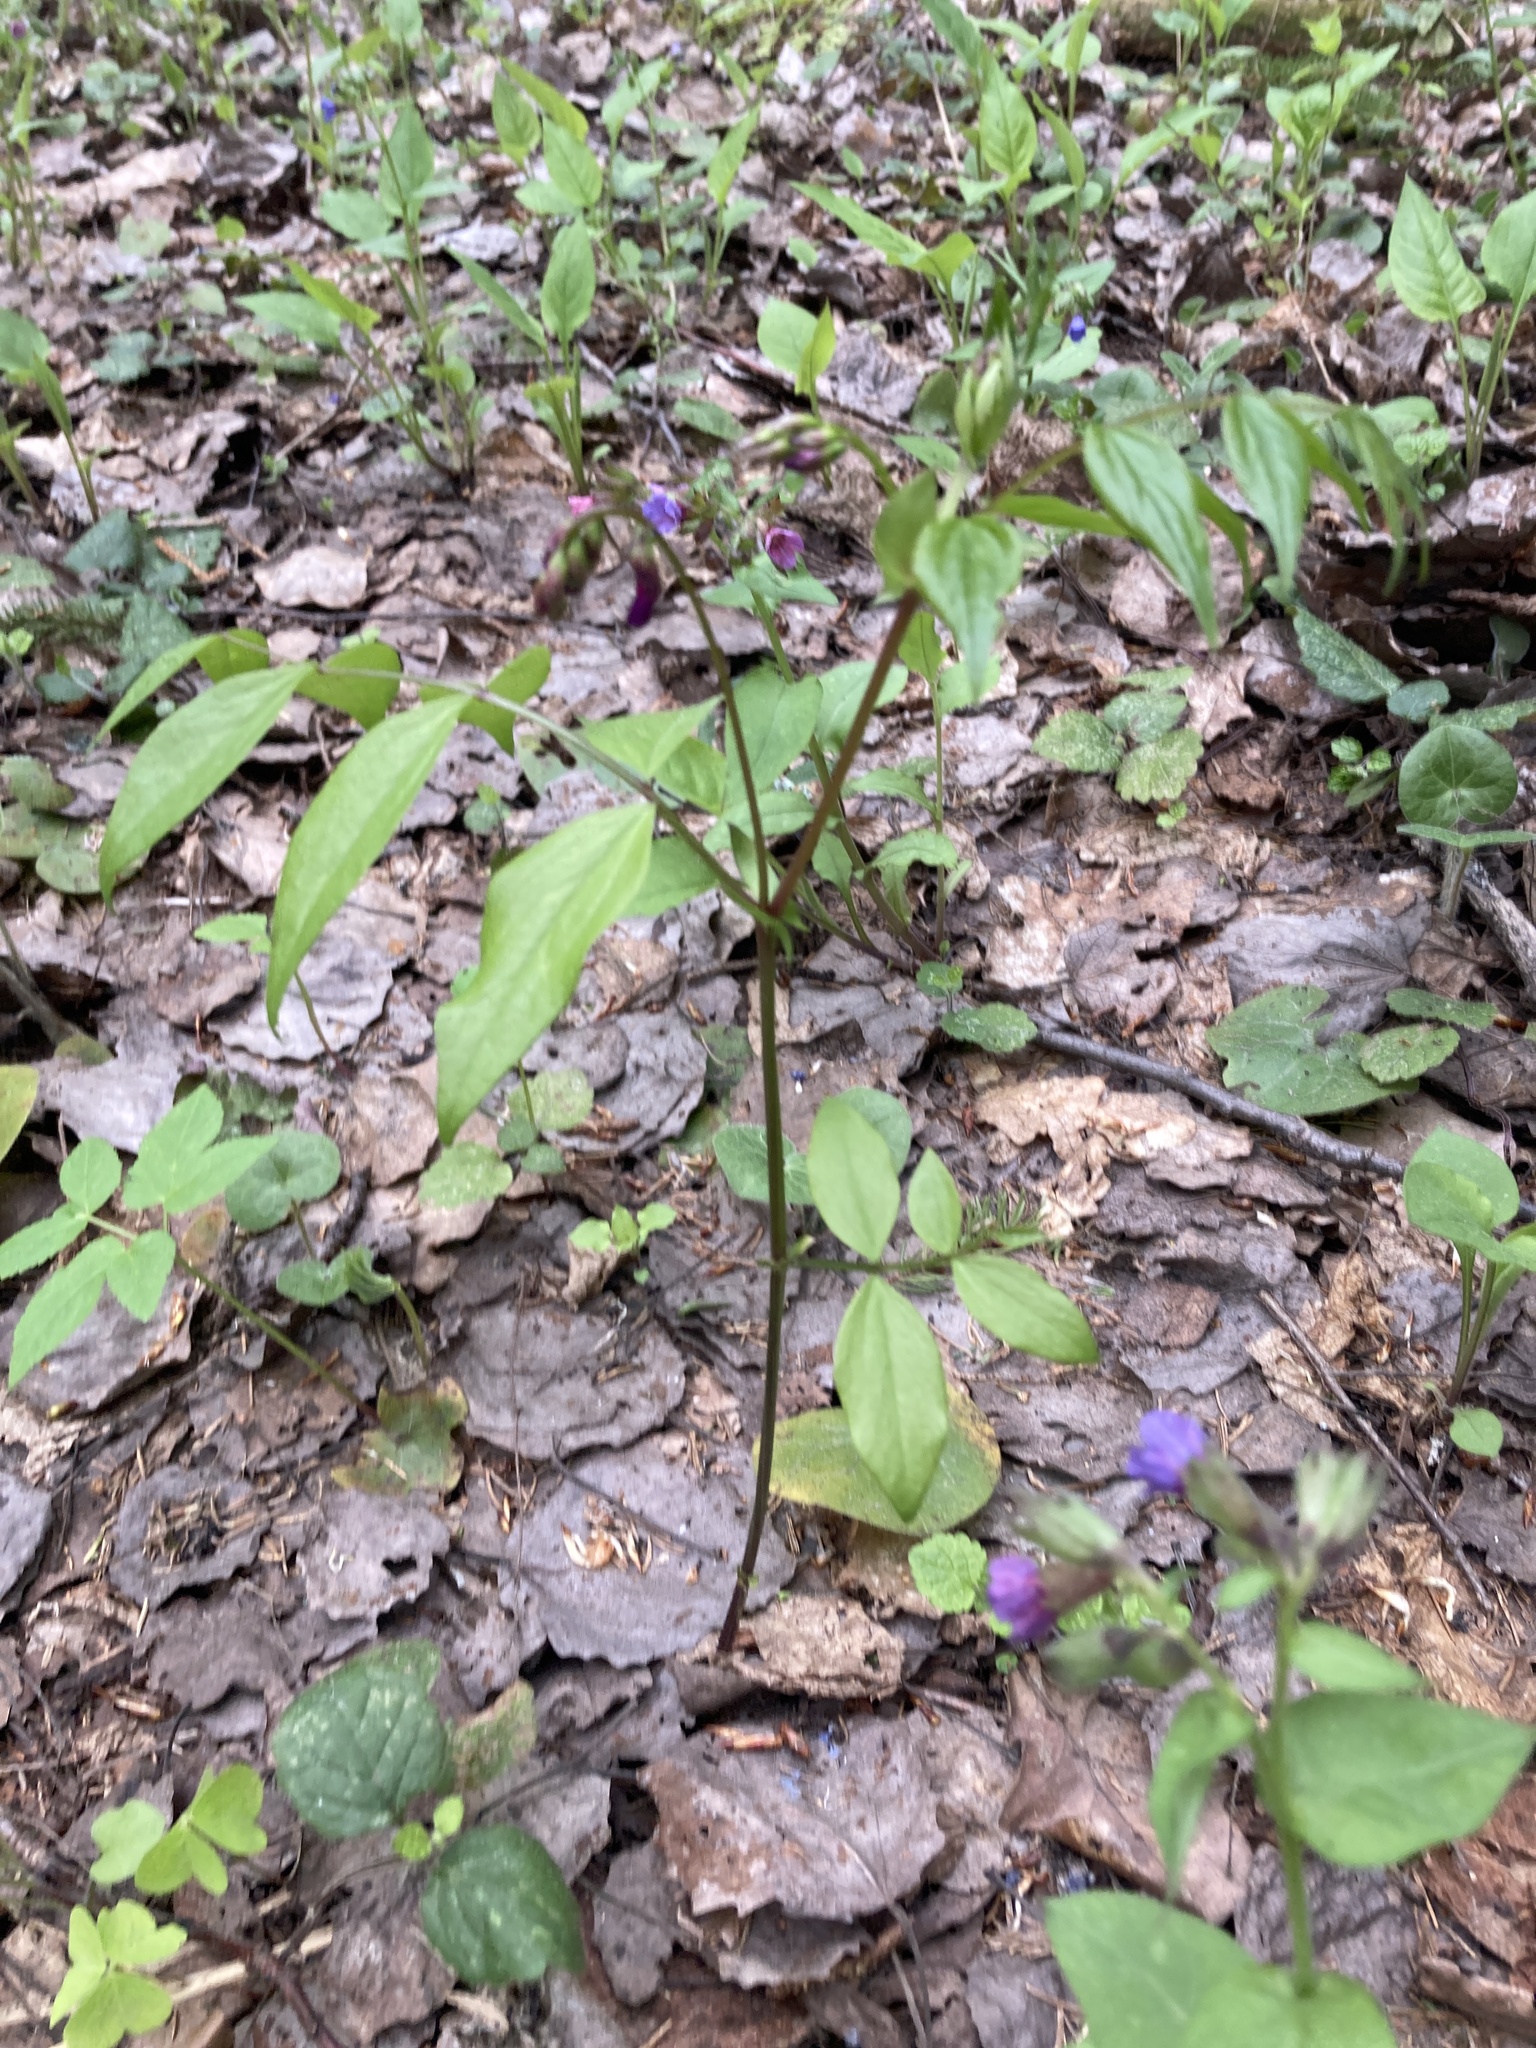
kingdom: Plantae
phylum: Tracheophyta
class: Magnoliopsida
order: Fabales
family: Fabaceae
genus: Lathyrus
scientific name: Lathyrus vernus
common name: Spring pea
